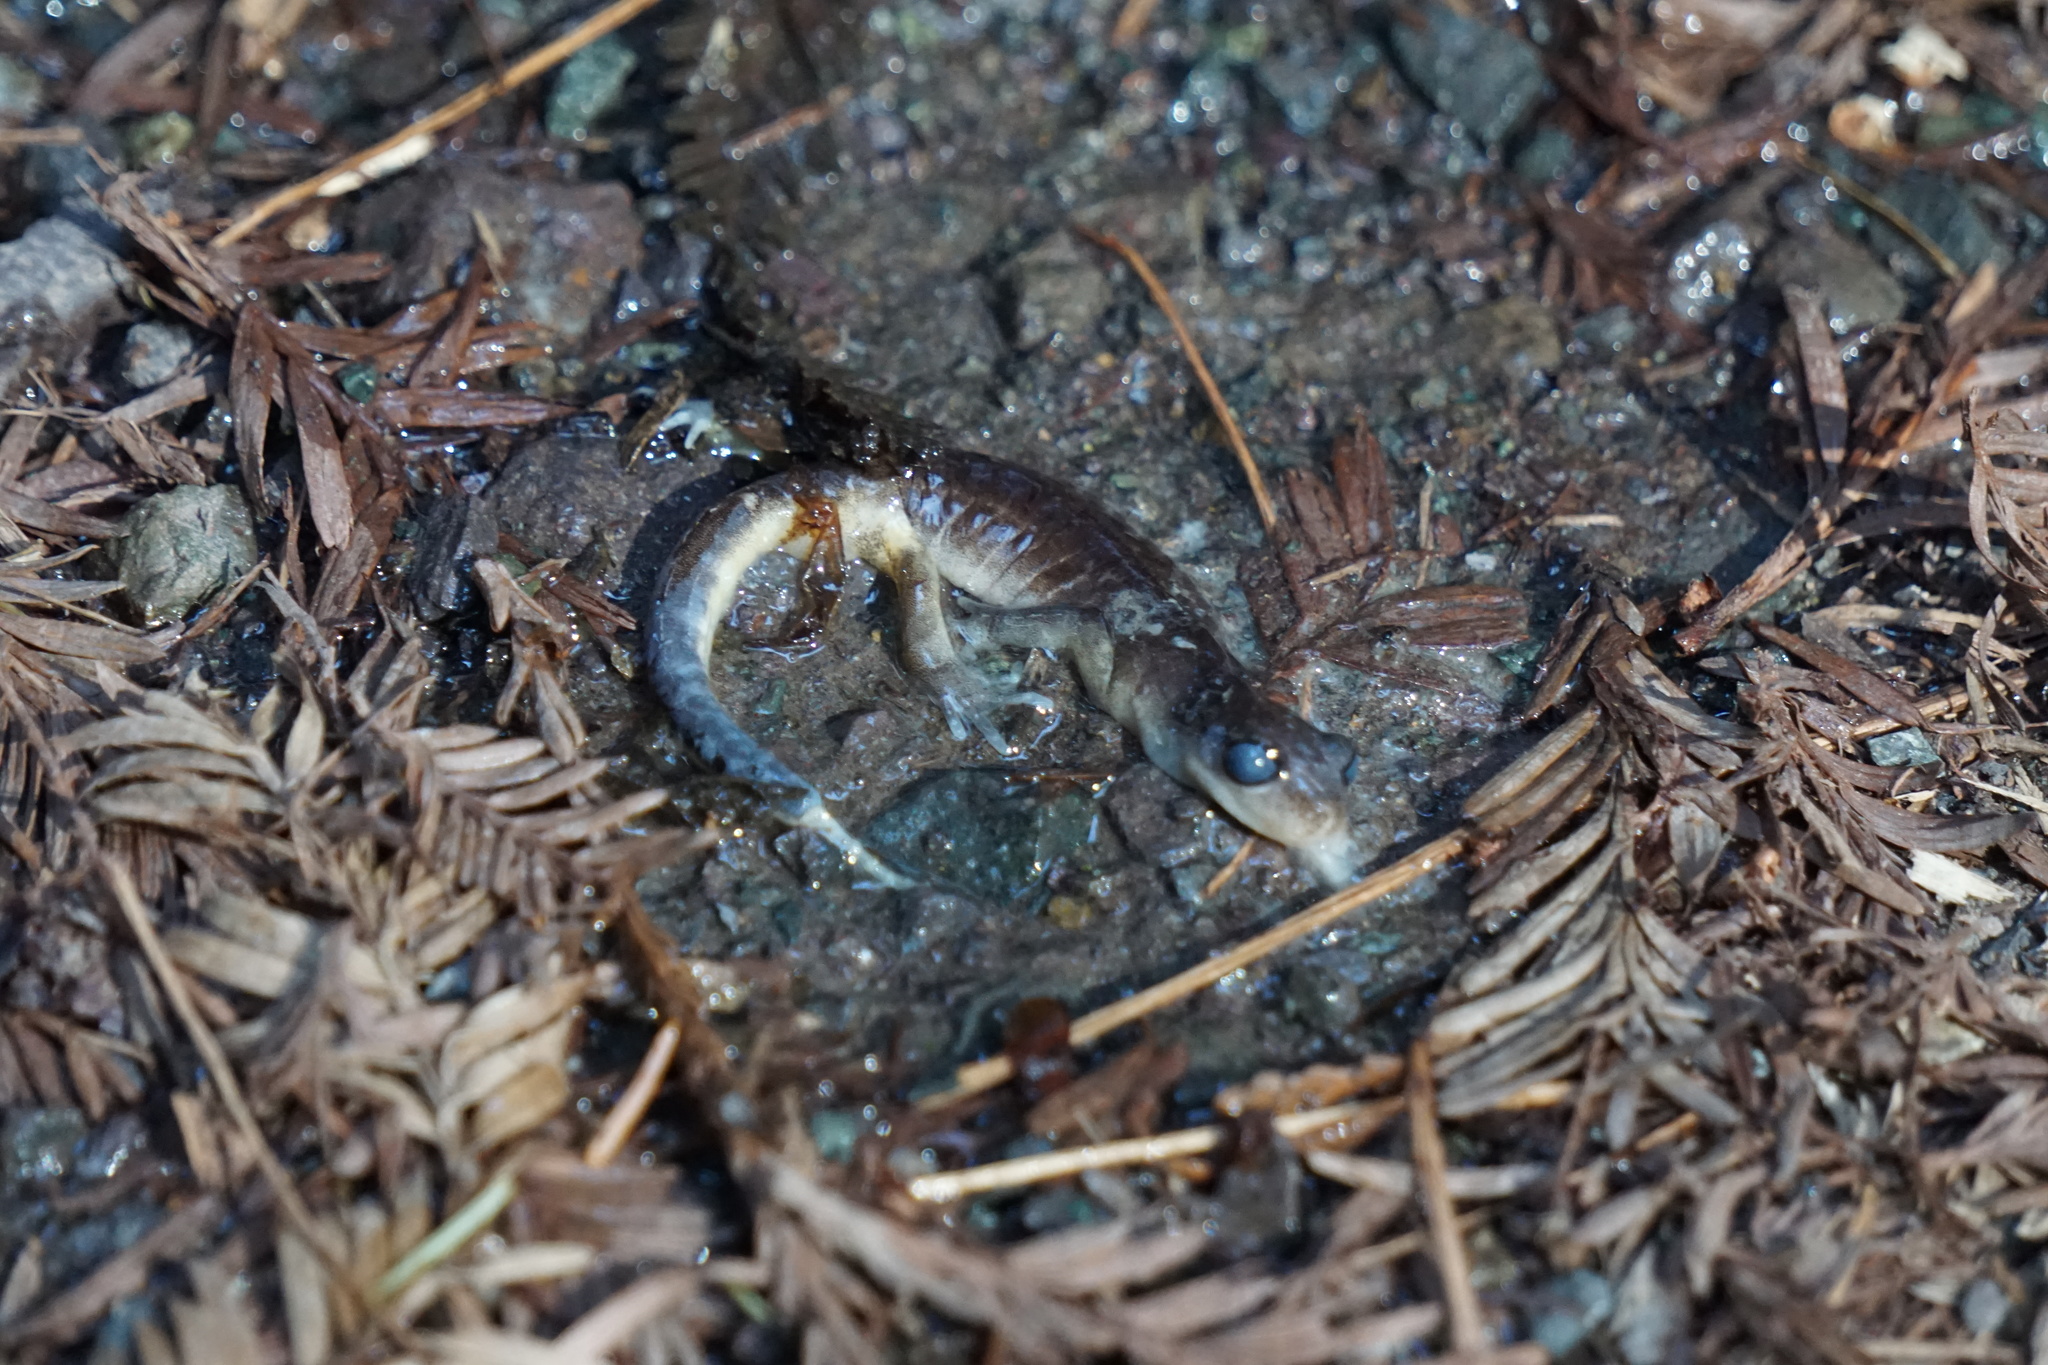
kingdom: Animalia
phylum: Chordata
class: Amphibia
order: Caudata
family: Plethodontidae
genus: Ensatina
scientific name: Ensatina eschscholtzii
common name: Ensatina
